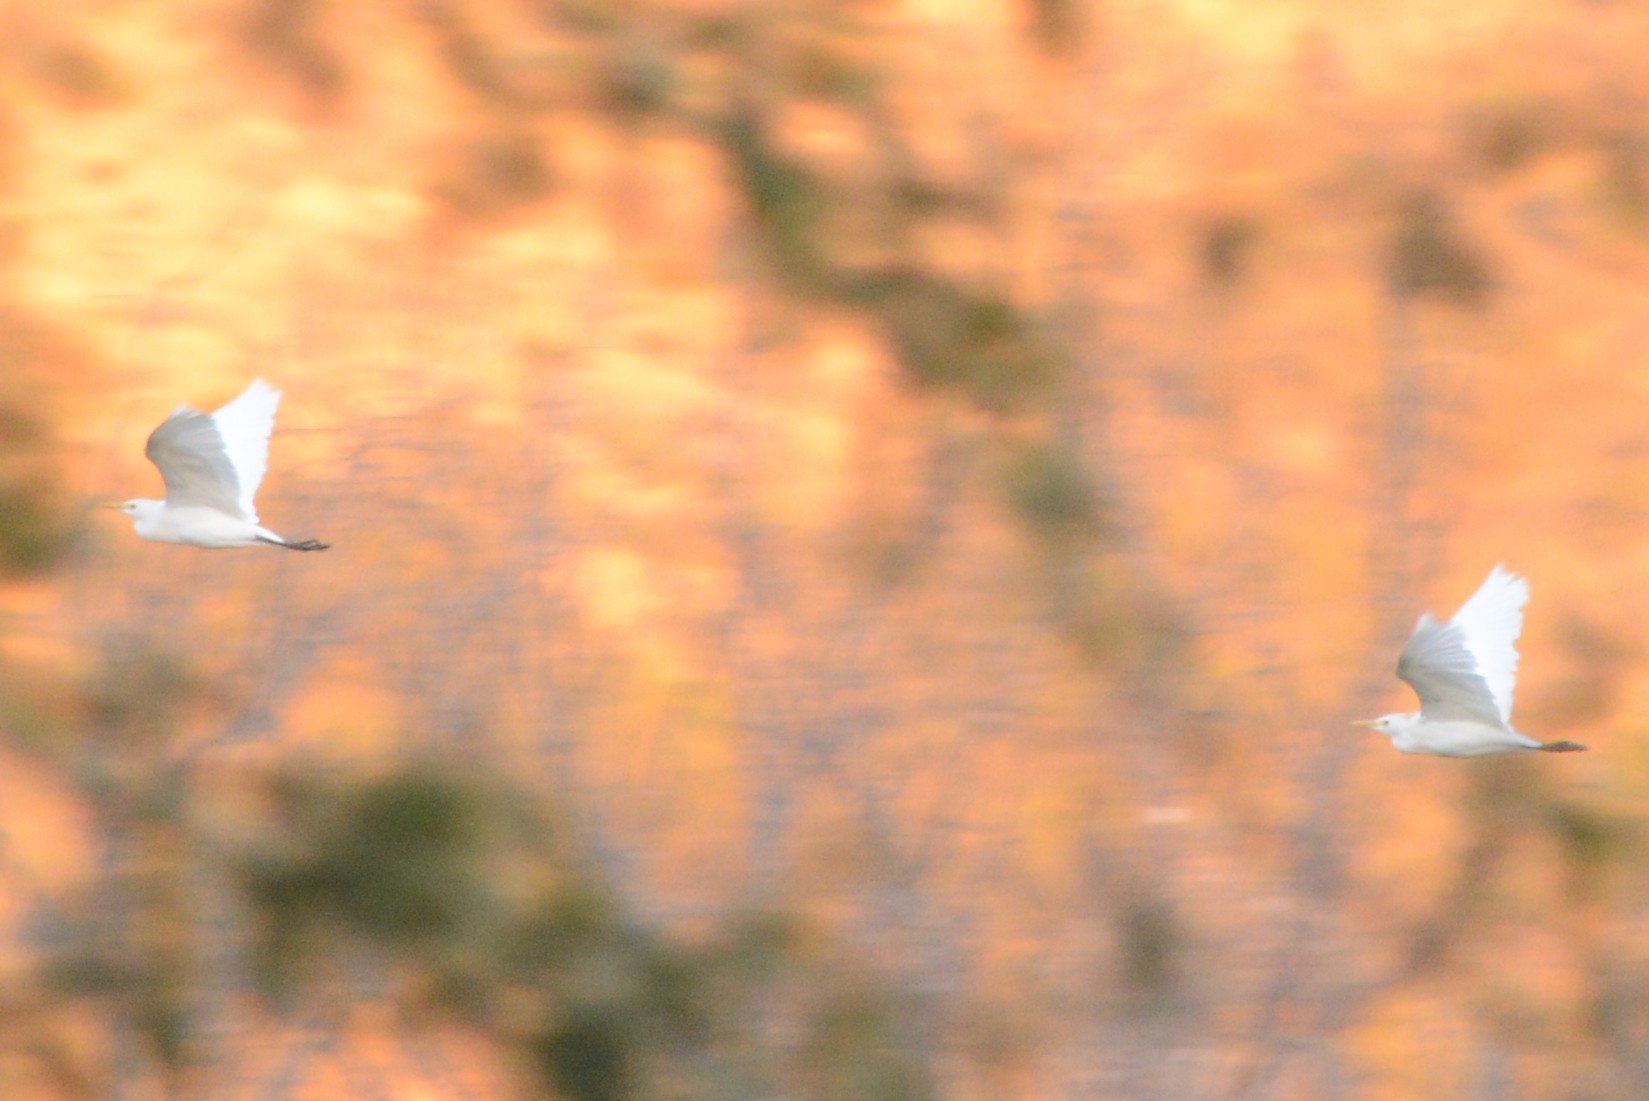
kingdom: Animalia
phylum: Chordata
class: Aves
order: Pelecaniformes
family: Ardeidae
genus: Bubulcus
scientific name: Bubulcus ibis
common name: Cattle egret
